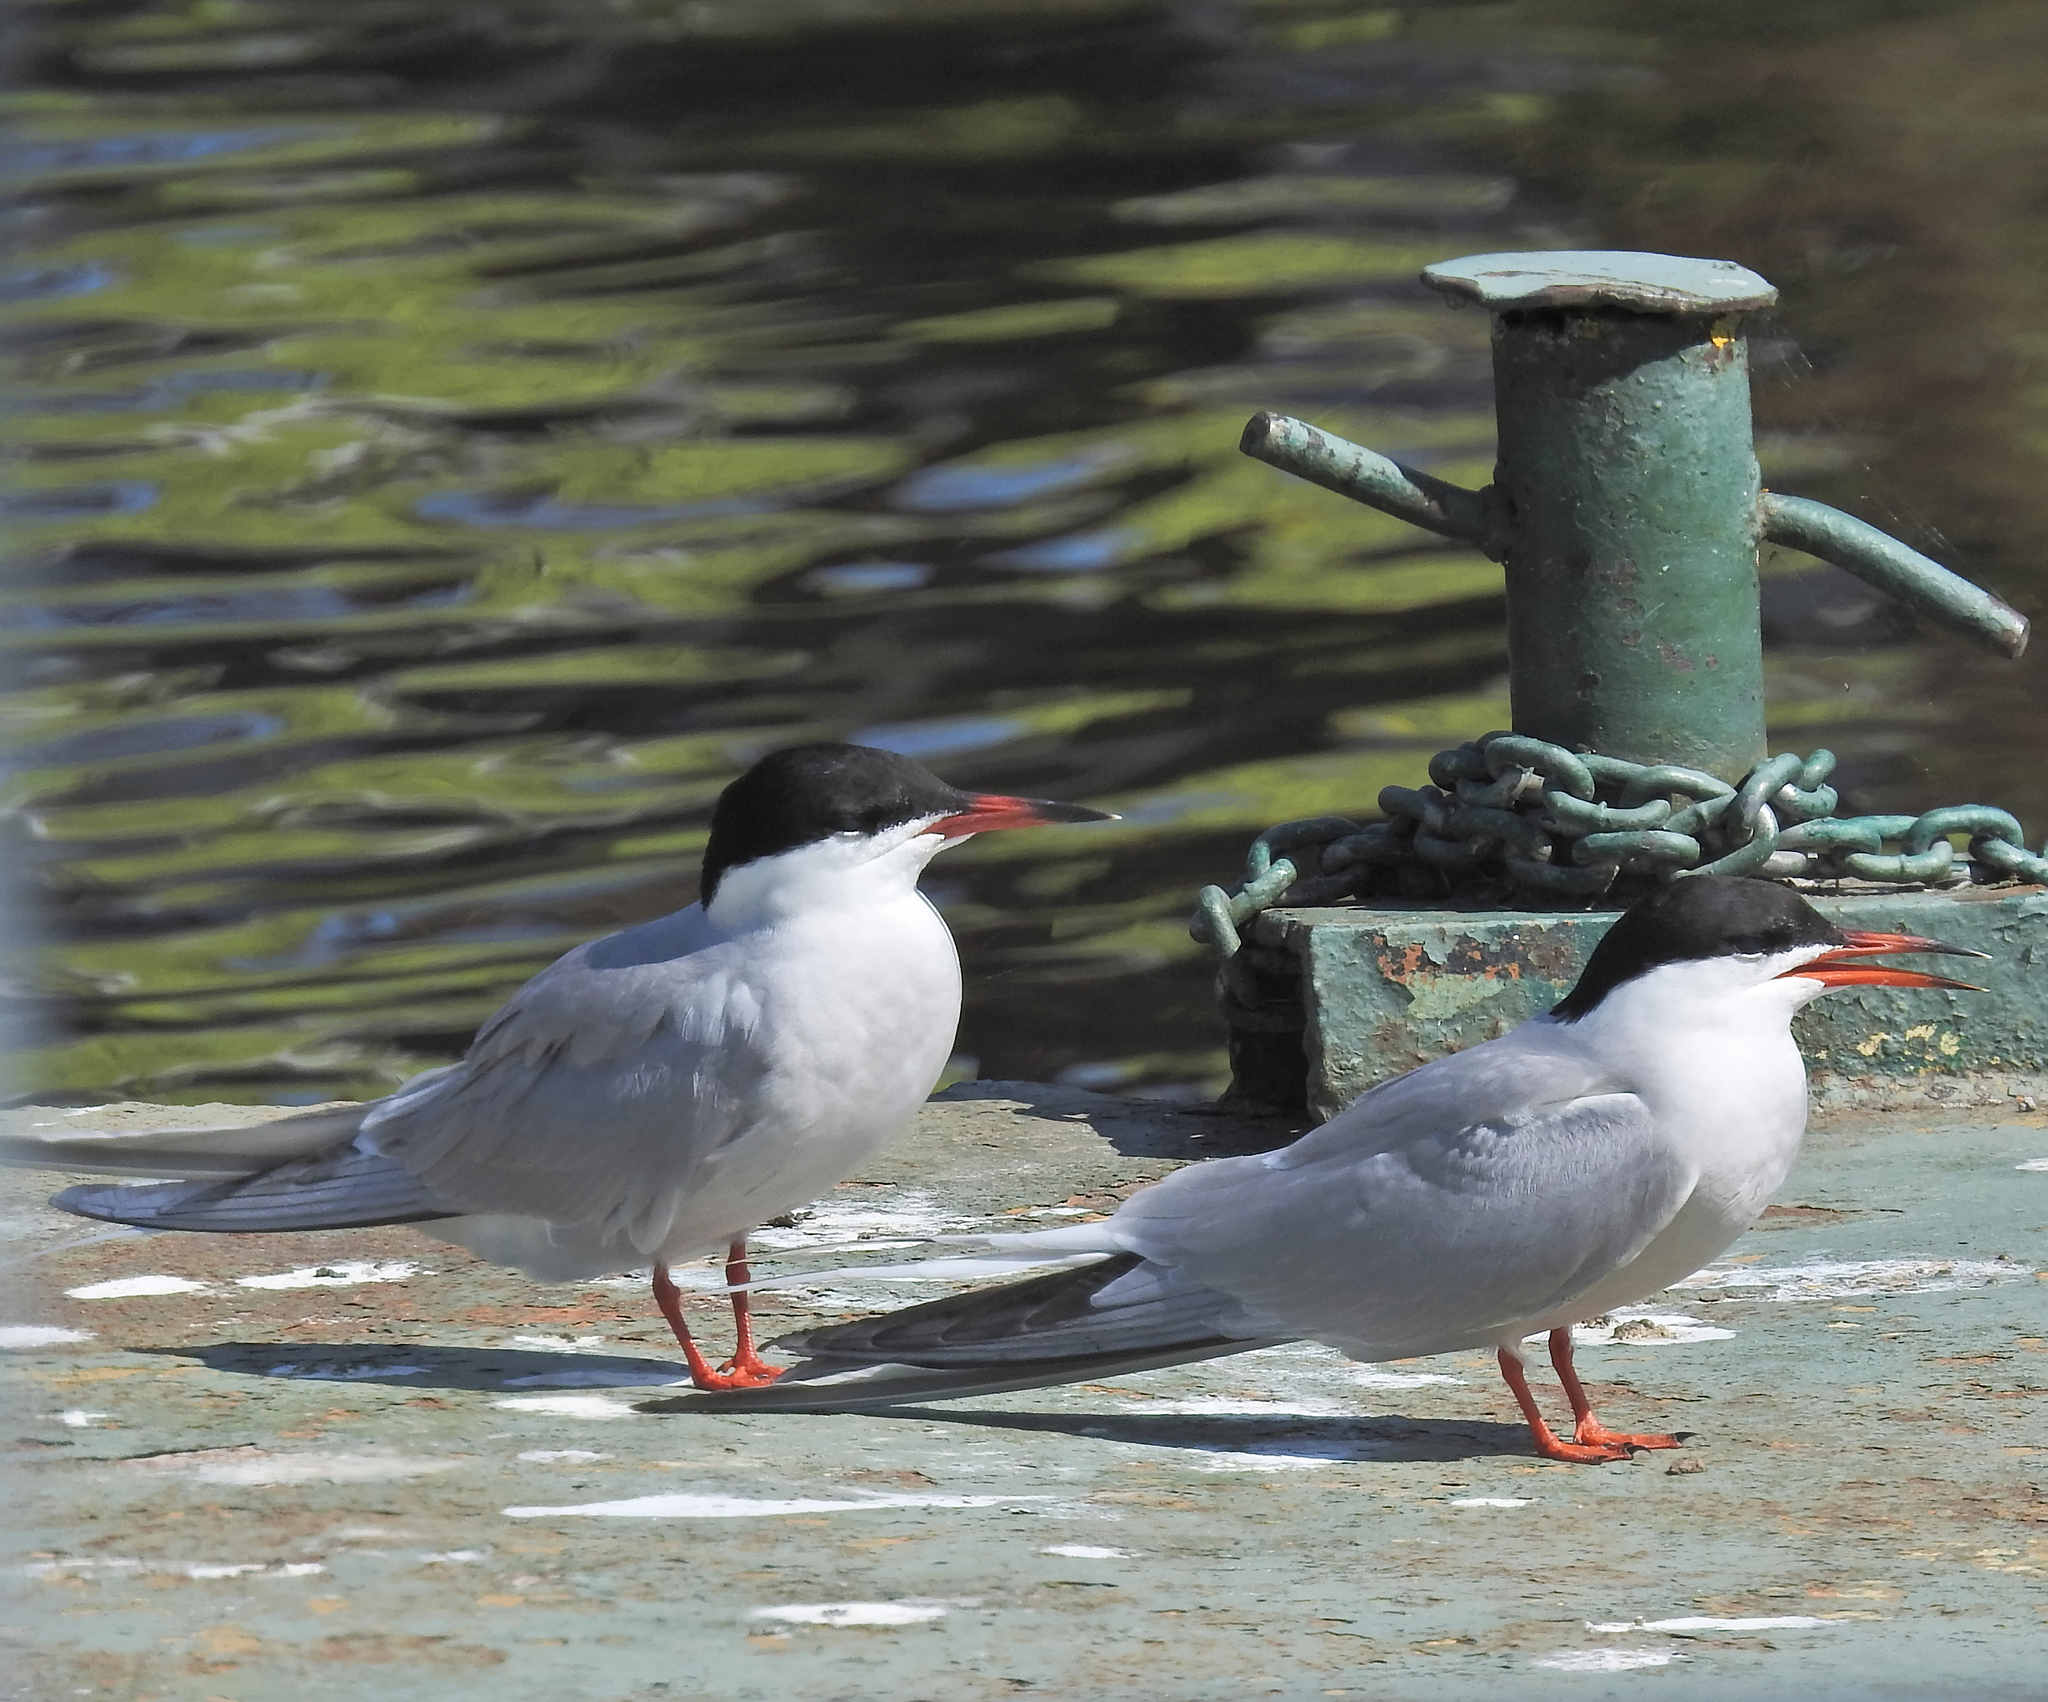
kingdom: Animalia
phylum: Chordata
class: Aves
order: Charadriiformes
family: Laridae
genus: Sterna
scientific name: Sterna hirundo
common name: Common tern
